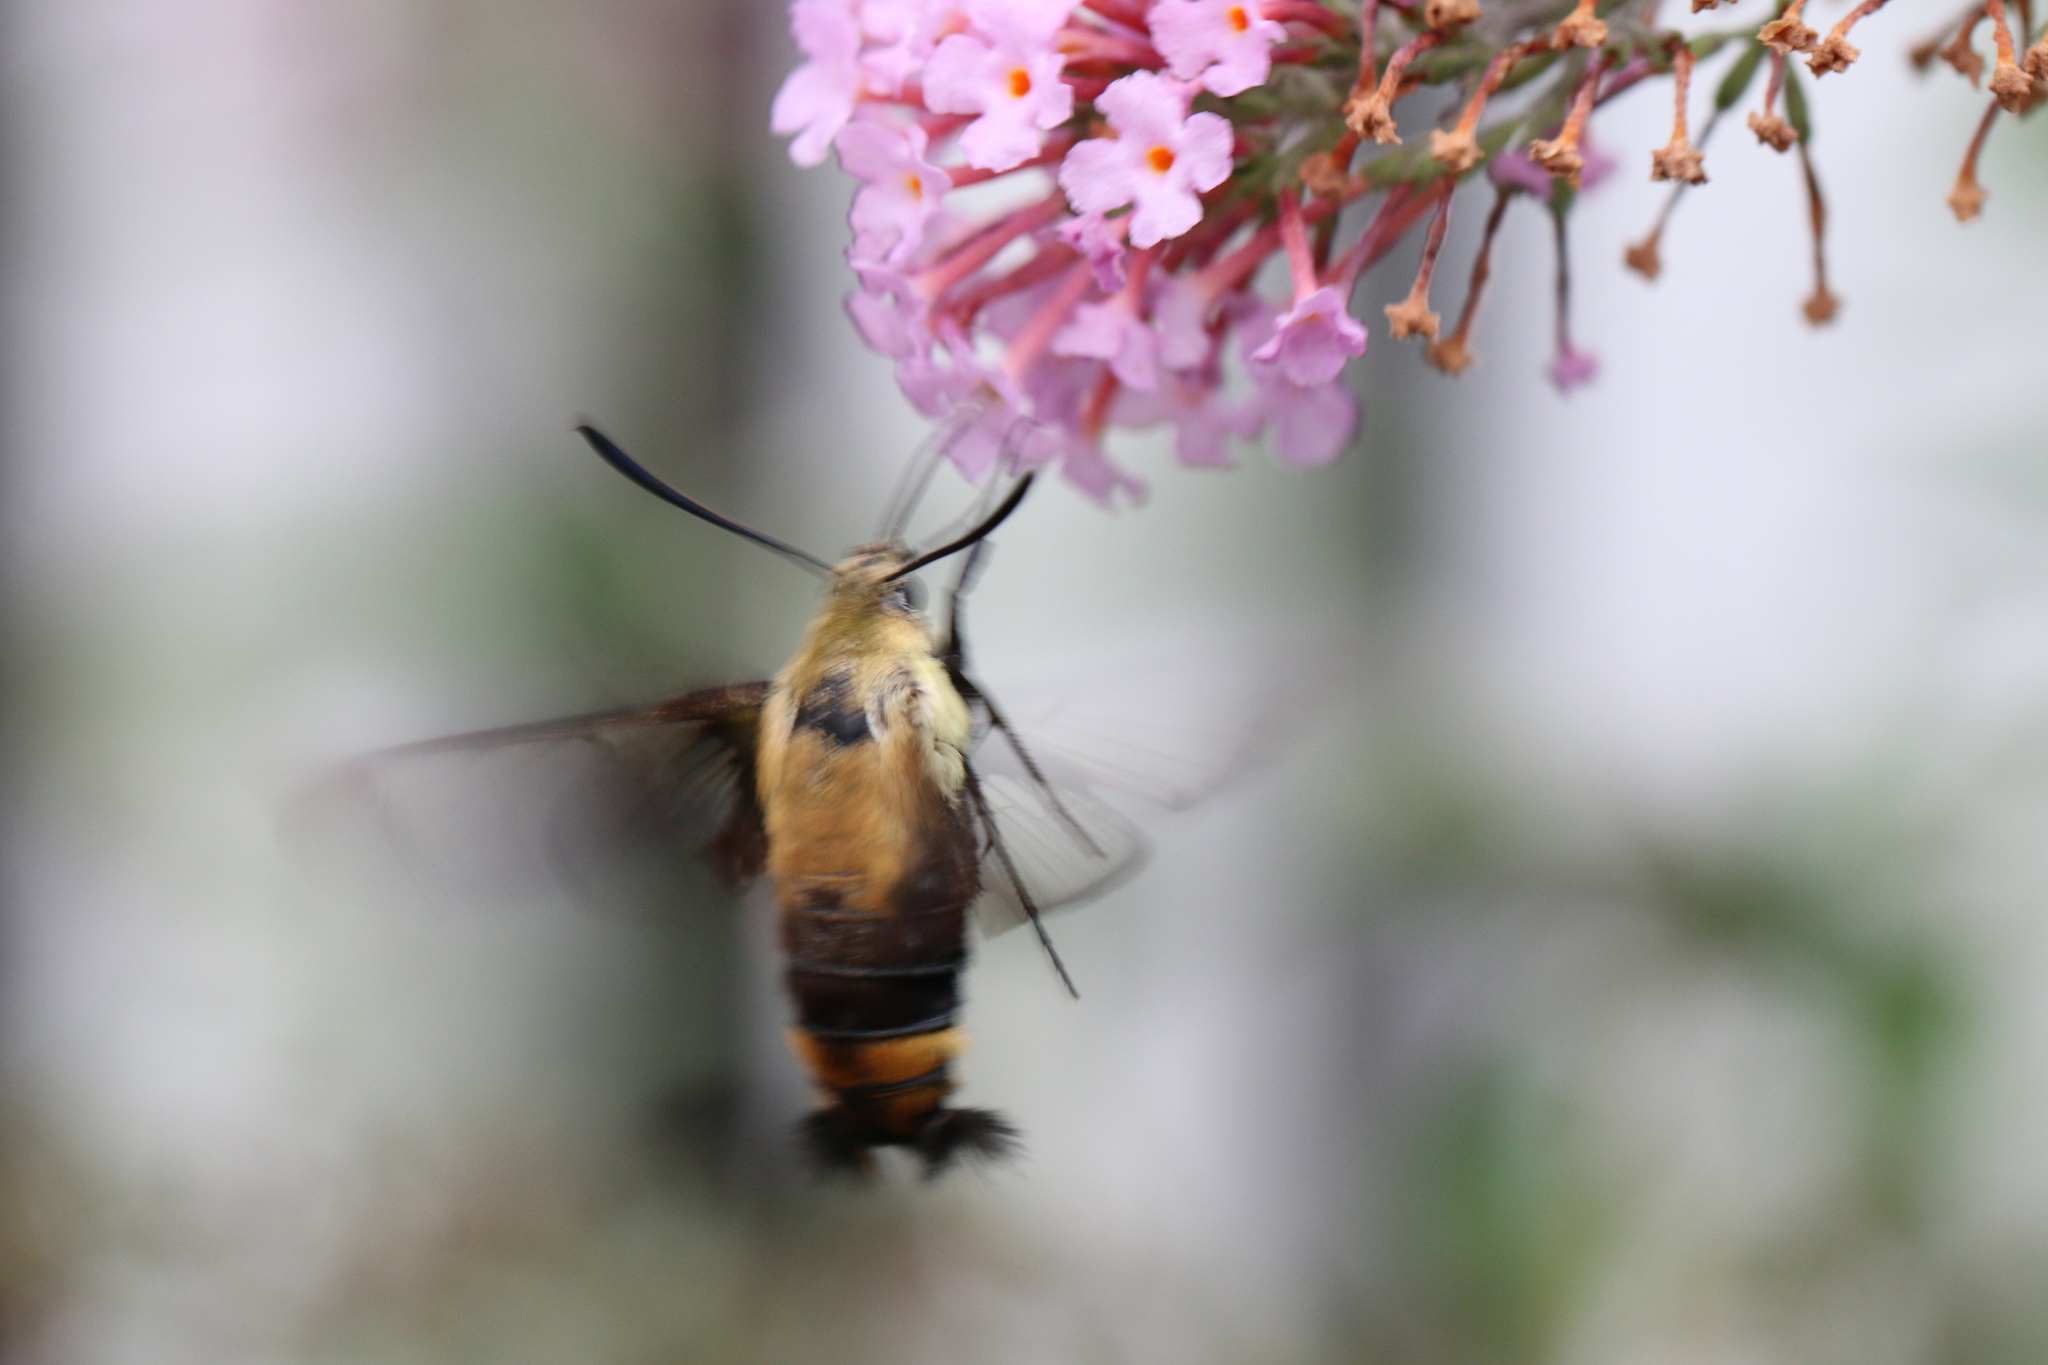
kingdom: Animalia
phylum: Arthropoda
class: Insecta
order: Lepidoptera
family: Sphingidae
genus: Hemaris
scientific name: Hemaris diffinis
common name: Bumblebee moth
